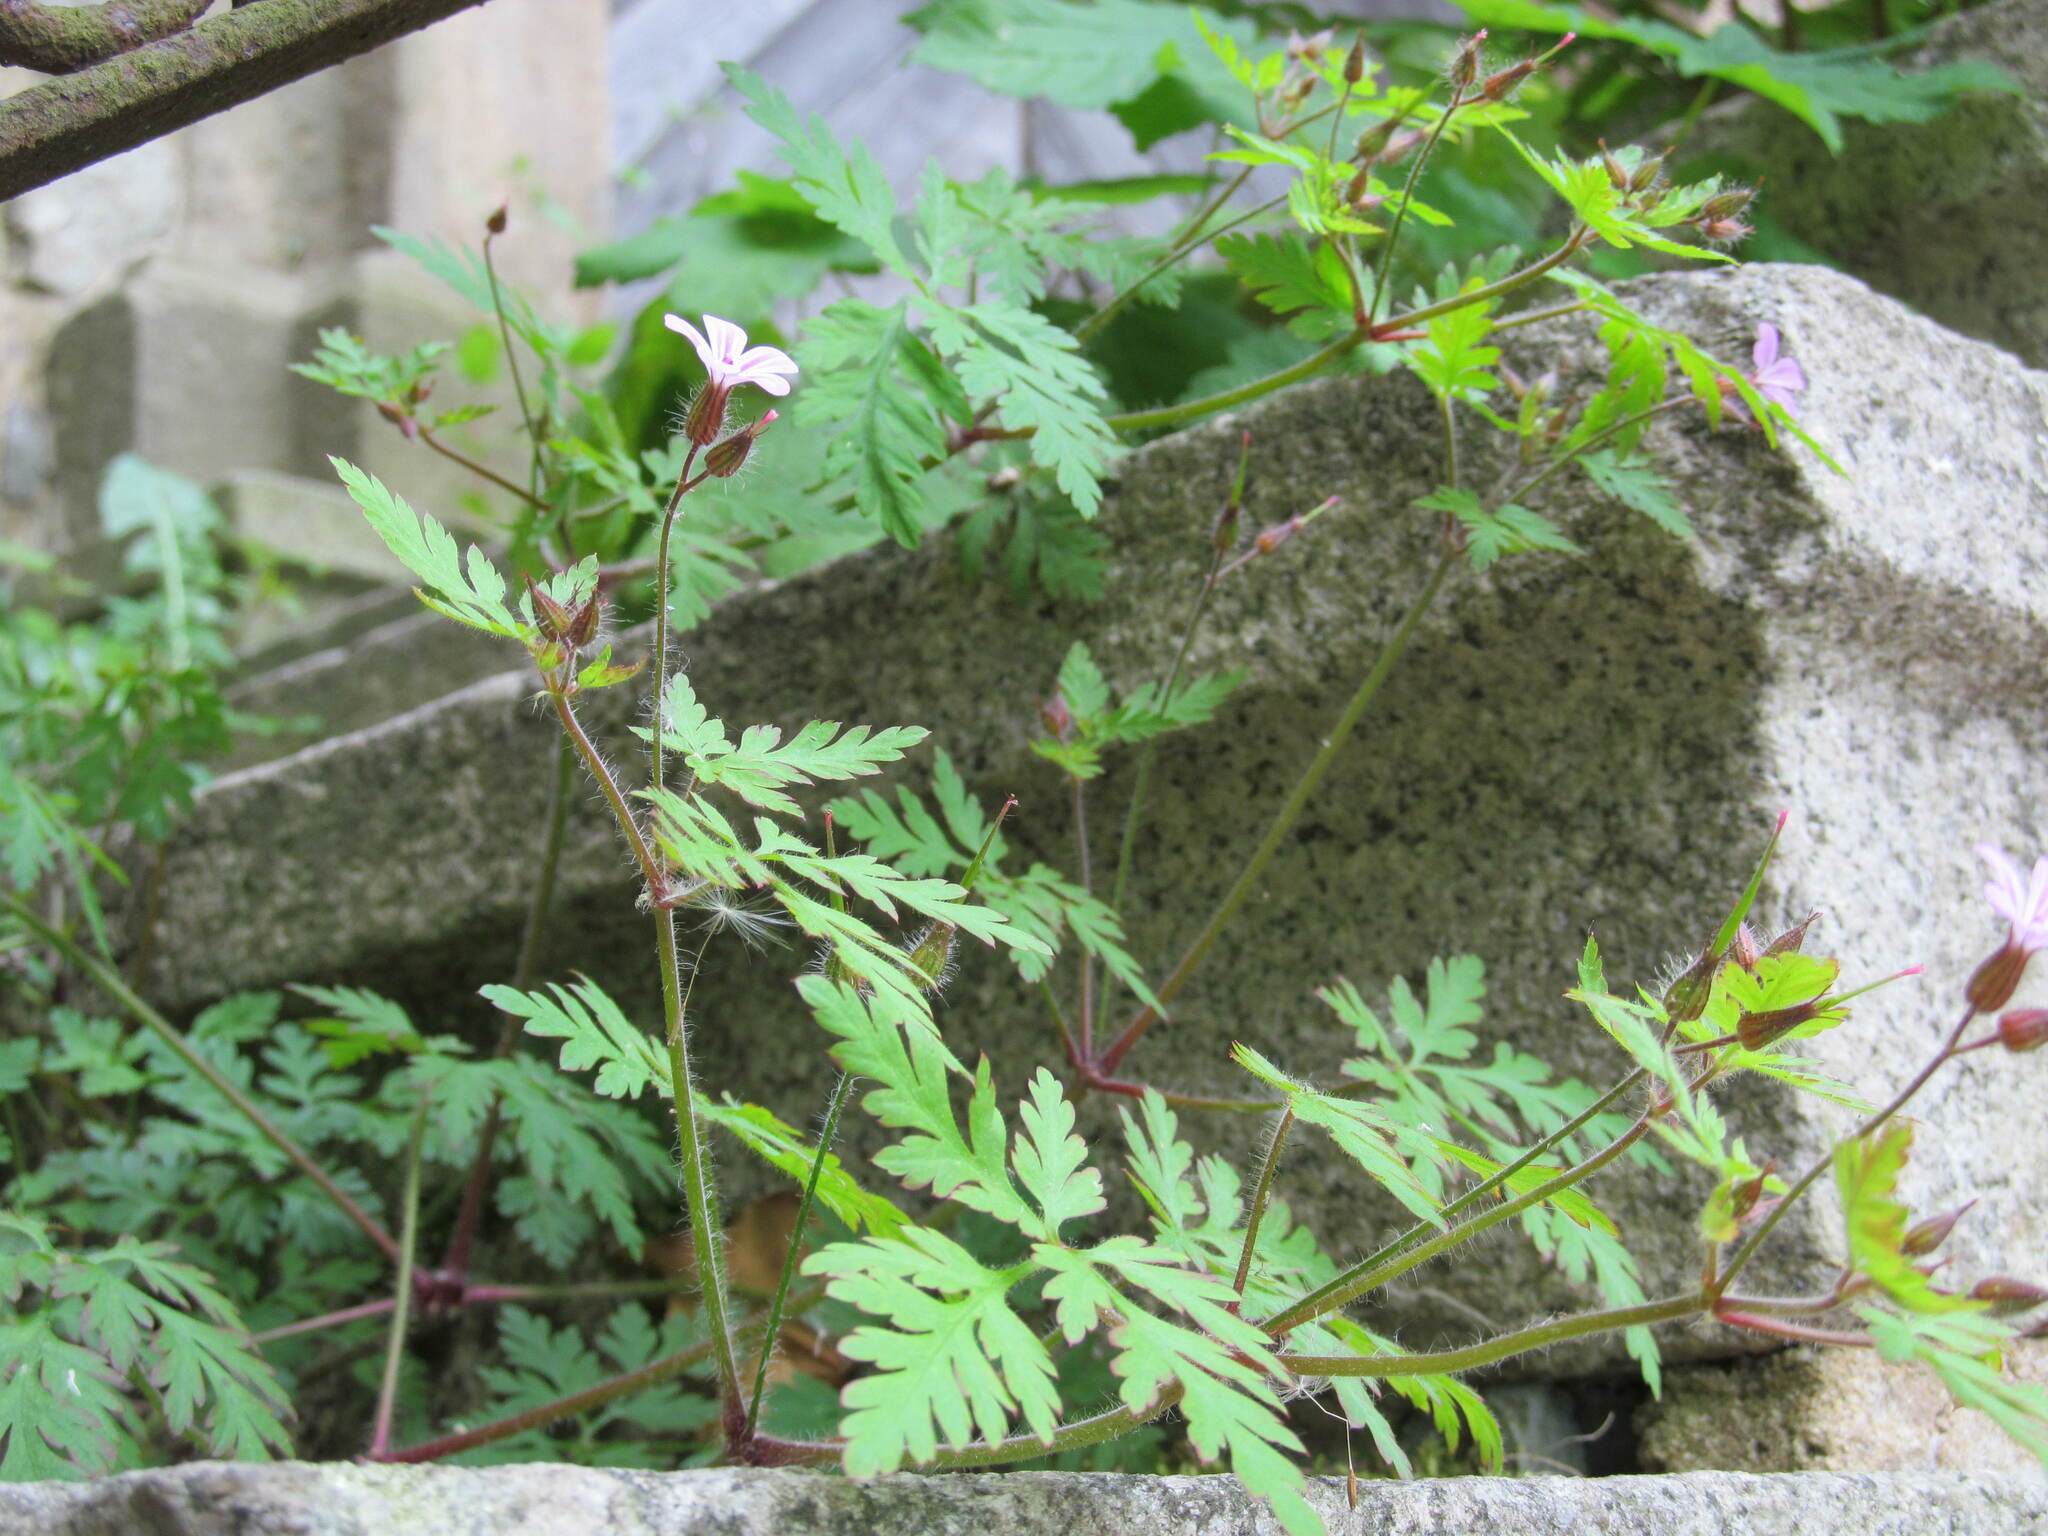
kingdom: Plantae
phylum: Tracheophyta
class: Magnoliopsida
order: Geraniales
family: Geraniaceae
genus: Geranium
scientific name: Geranium robertianum
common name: Herb-robert
